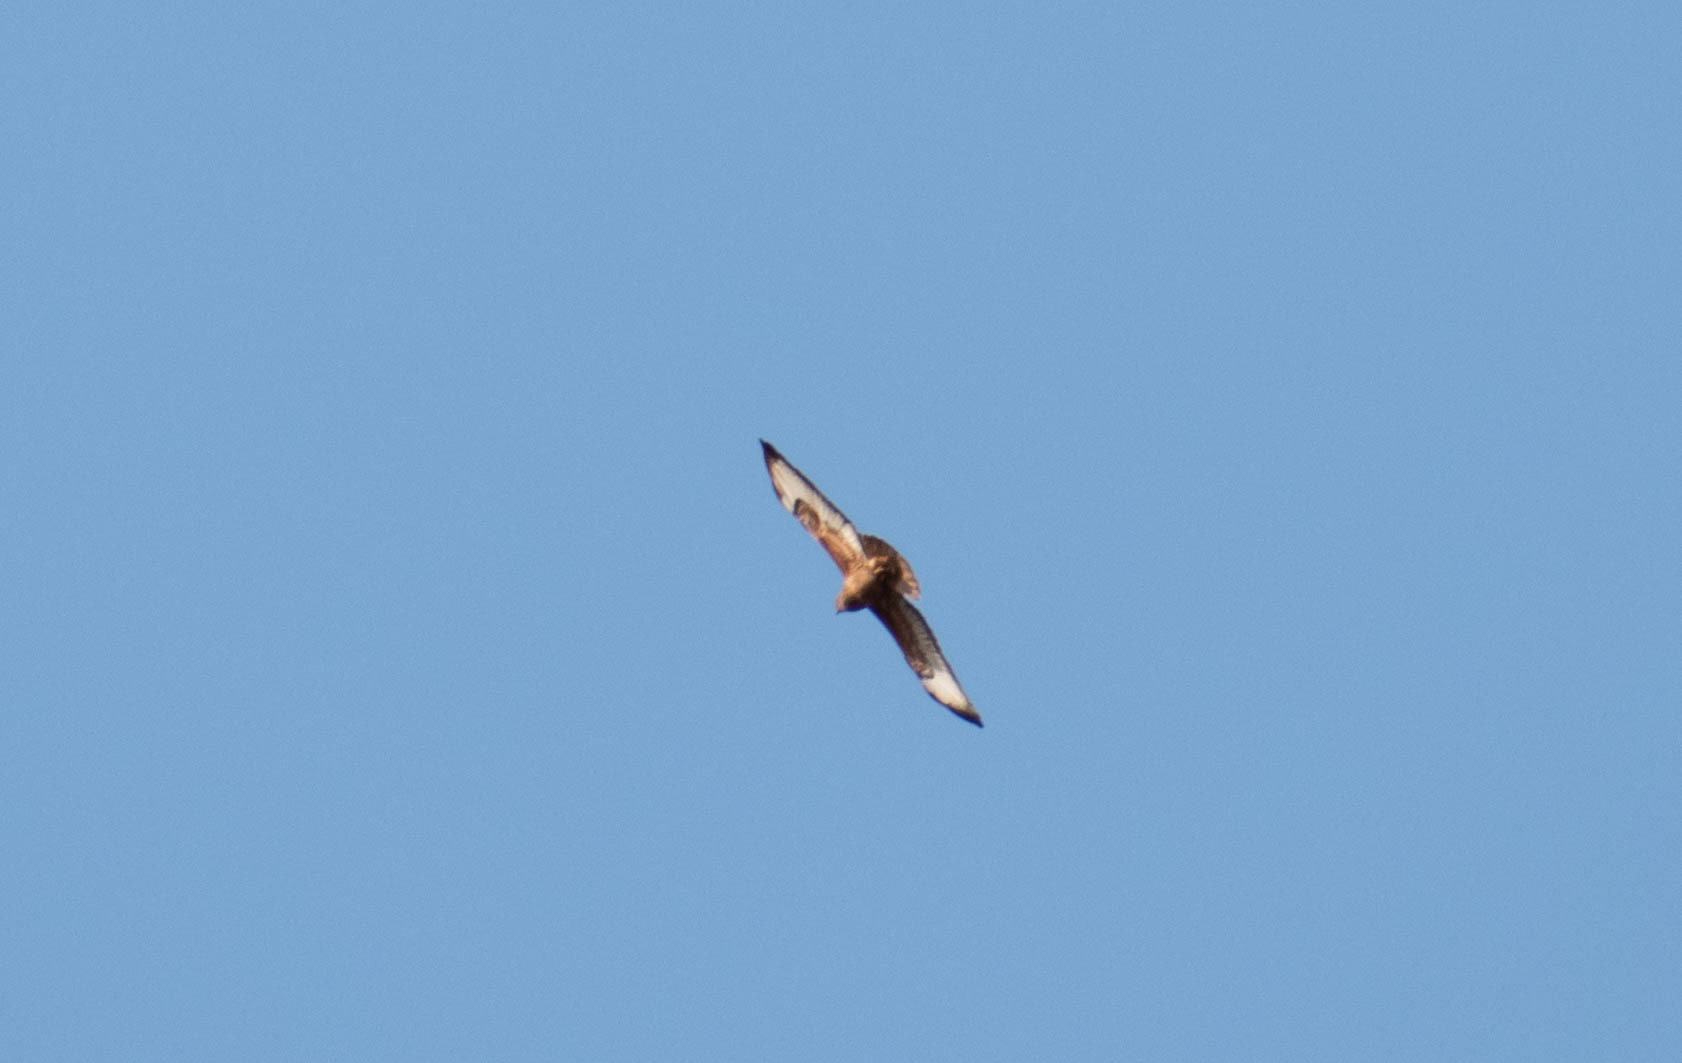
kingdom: Animalia
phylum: Chordata
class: Aves
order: Accipitriformes
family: Accipitridae
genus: Buteo
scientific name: Buteo buteo
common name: Common buzzard
